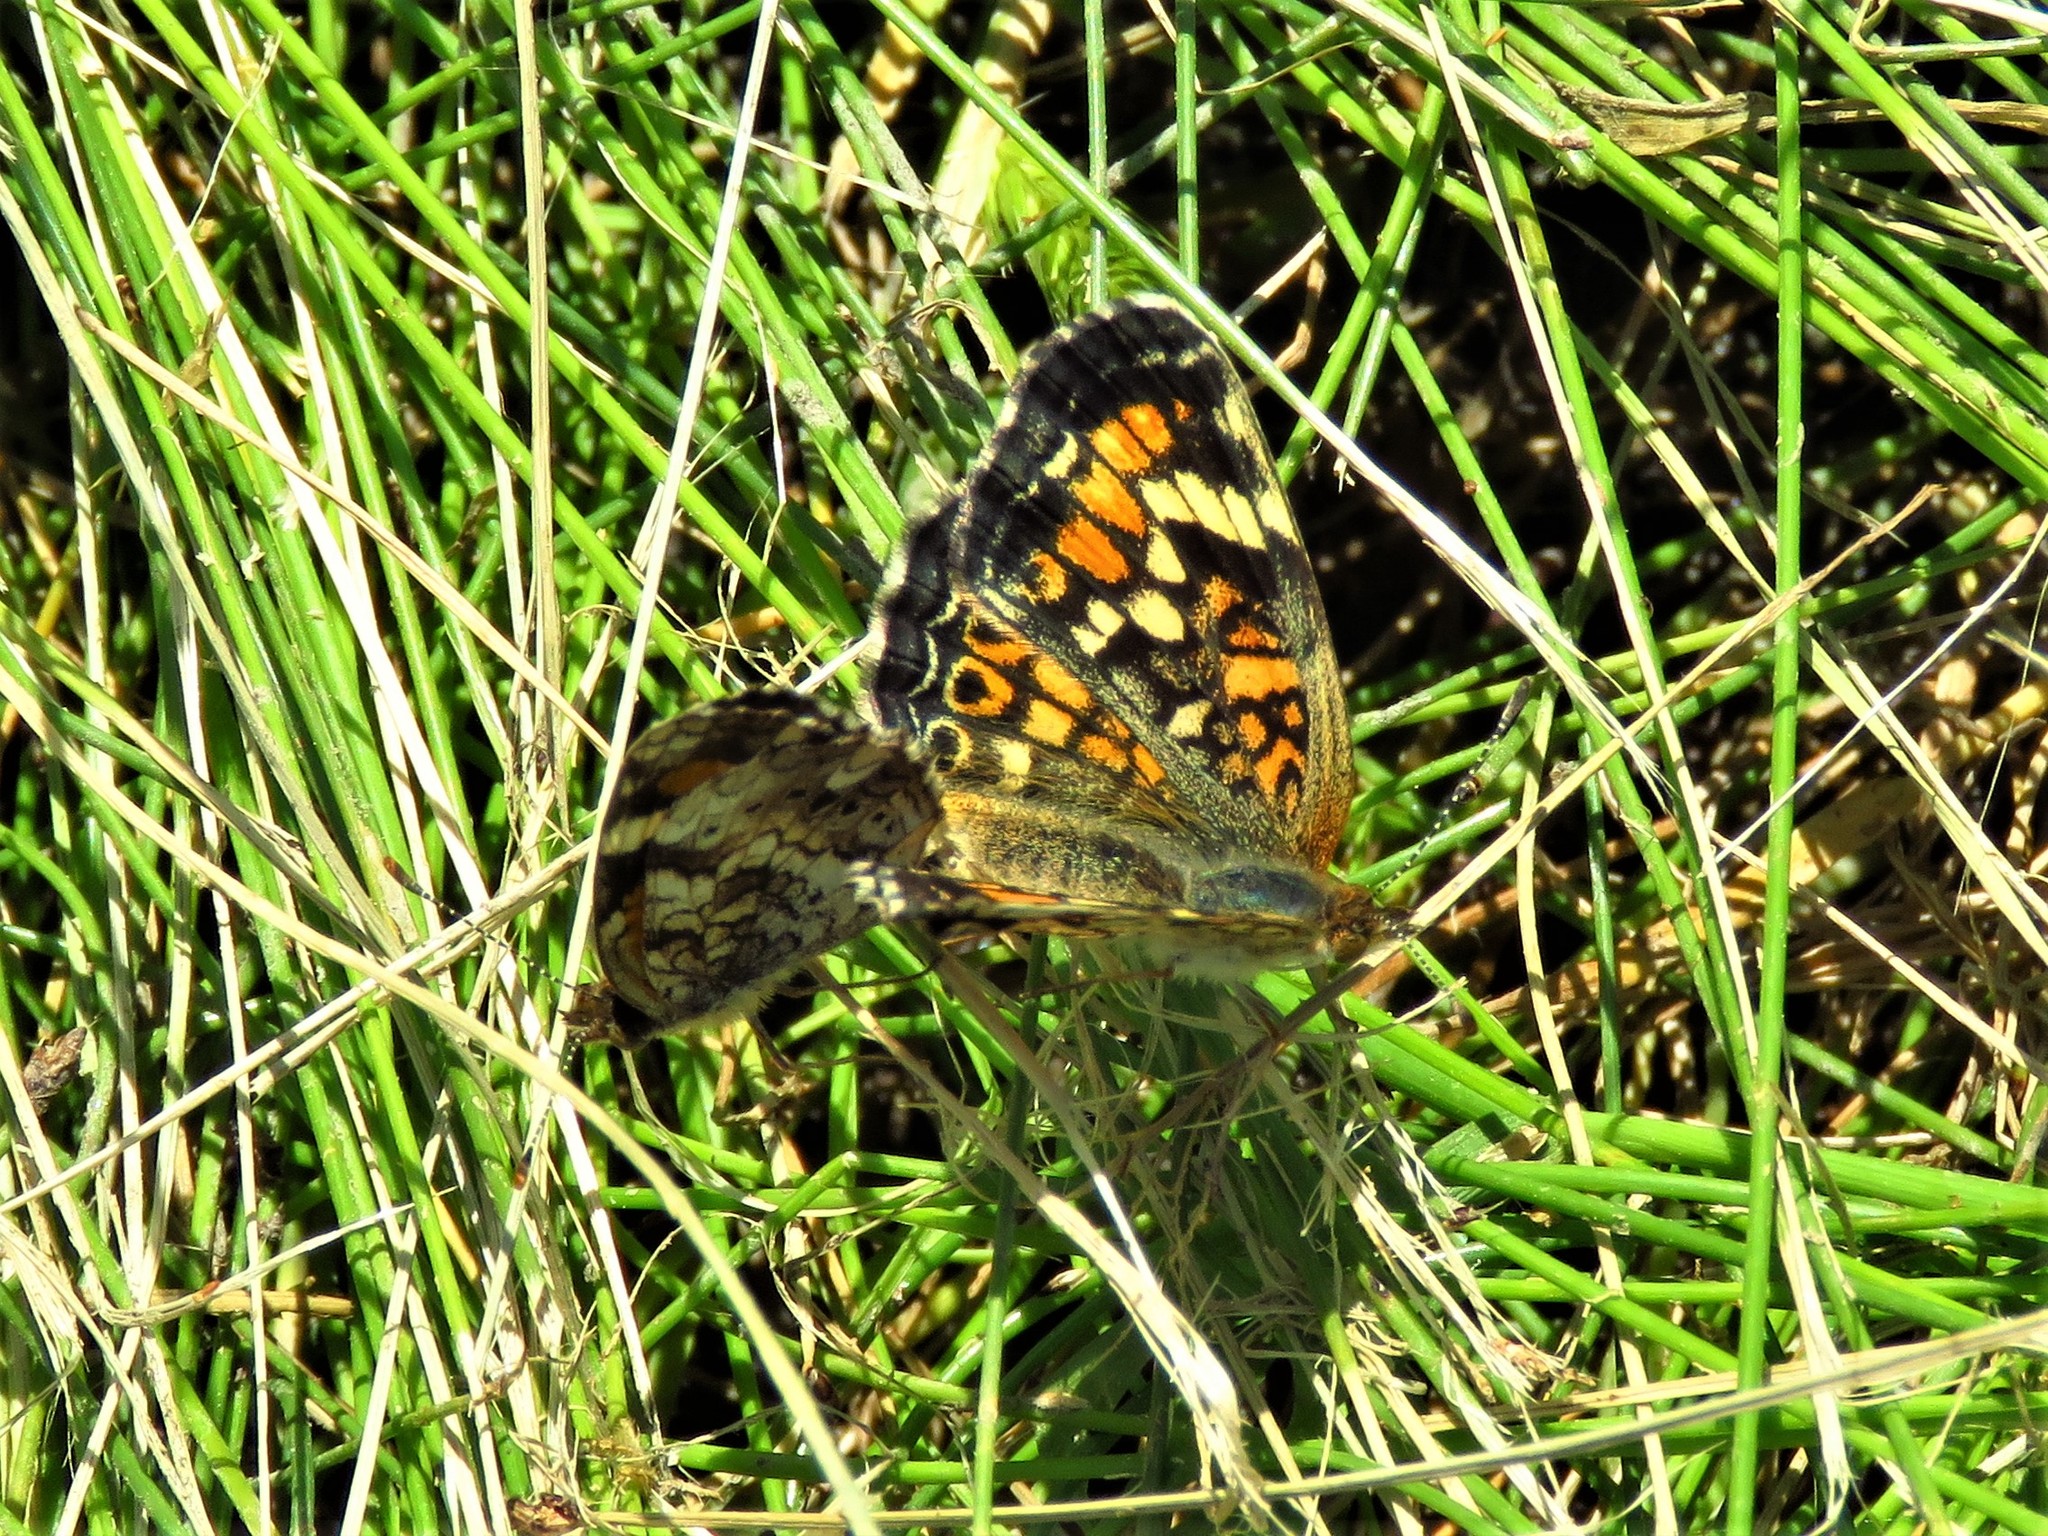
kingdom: Animalia
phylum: Arthropoda
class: Insecta
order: Lepidoptera
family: Nymphalidae
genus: Phyciodes
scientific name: Phyciodes phaon
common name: Phaon crescent
